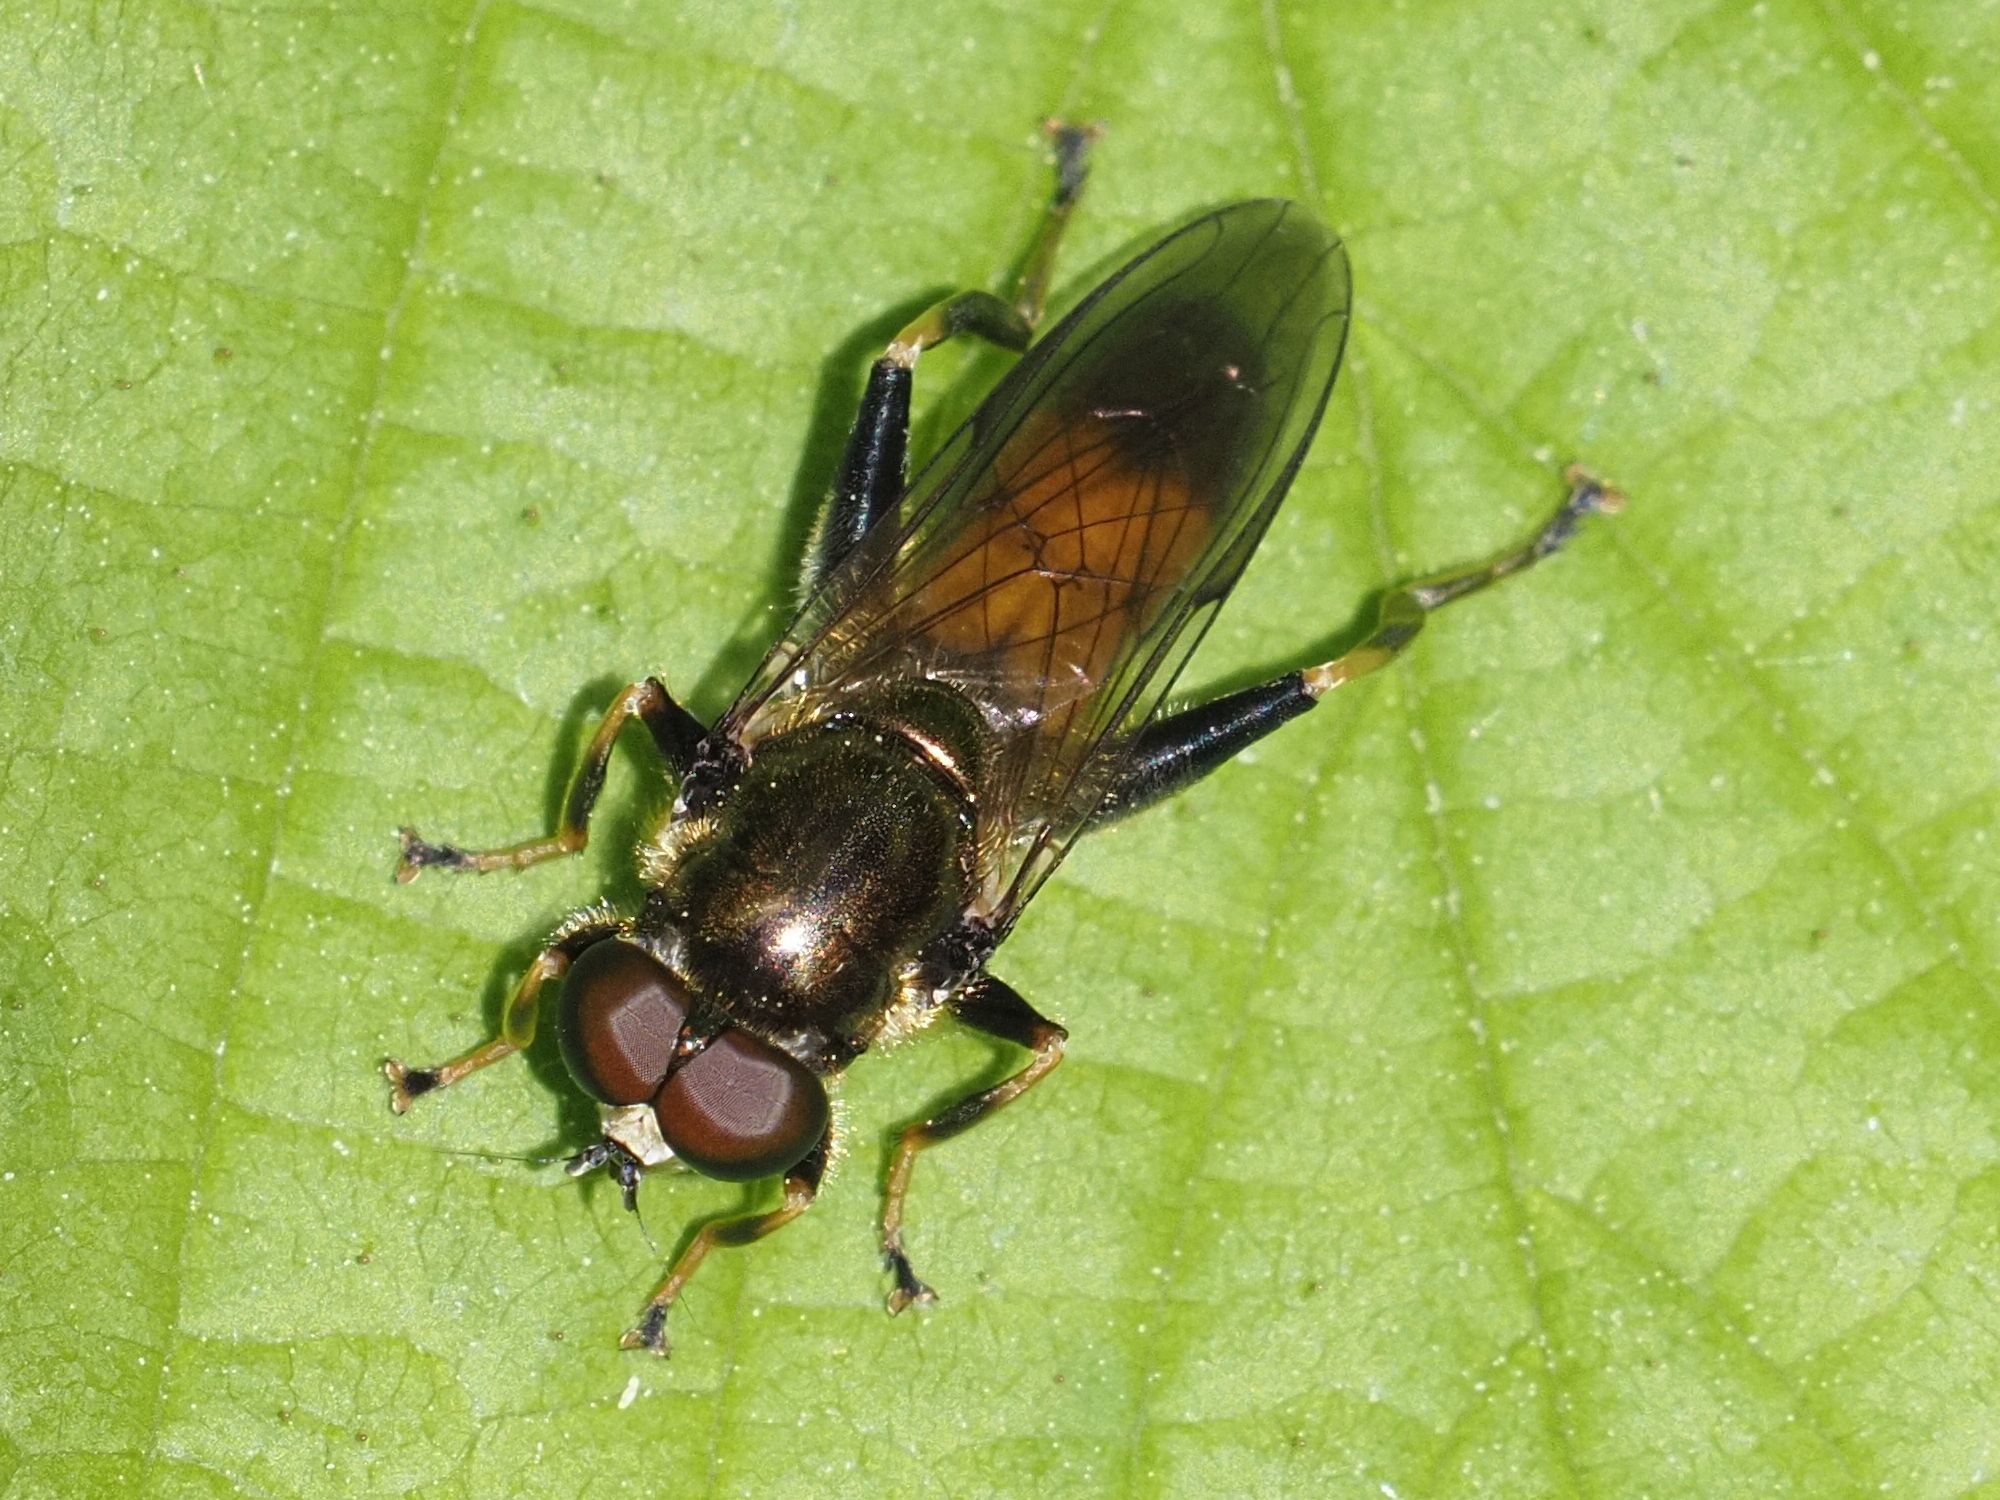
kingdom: Animalia
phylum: Arthropoda
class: Insecta
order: Diptera
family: Syrphidae
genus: Xylota
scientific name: Xylota segnis
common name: Brown-toed forest fly
